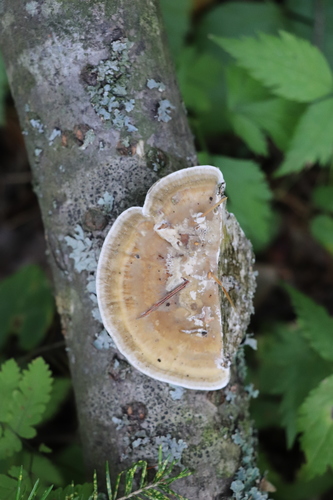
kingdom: Fungi
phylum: Basidiomycota
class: Agaricomycetes
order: Polyporales
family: Polyporaceae
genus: Daedaleopsis
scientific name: Daedaleopsis confragosa
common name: Blushing bracket
